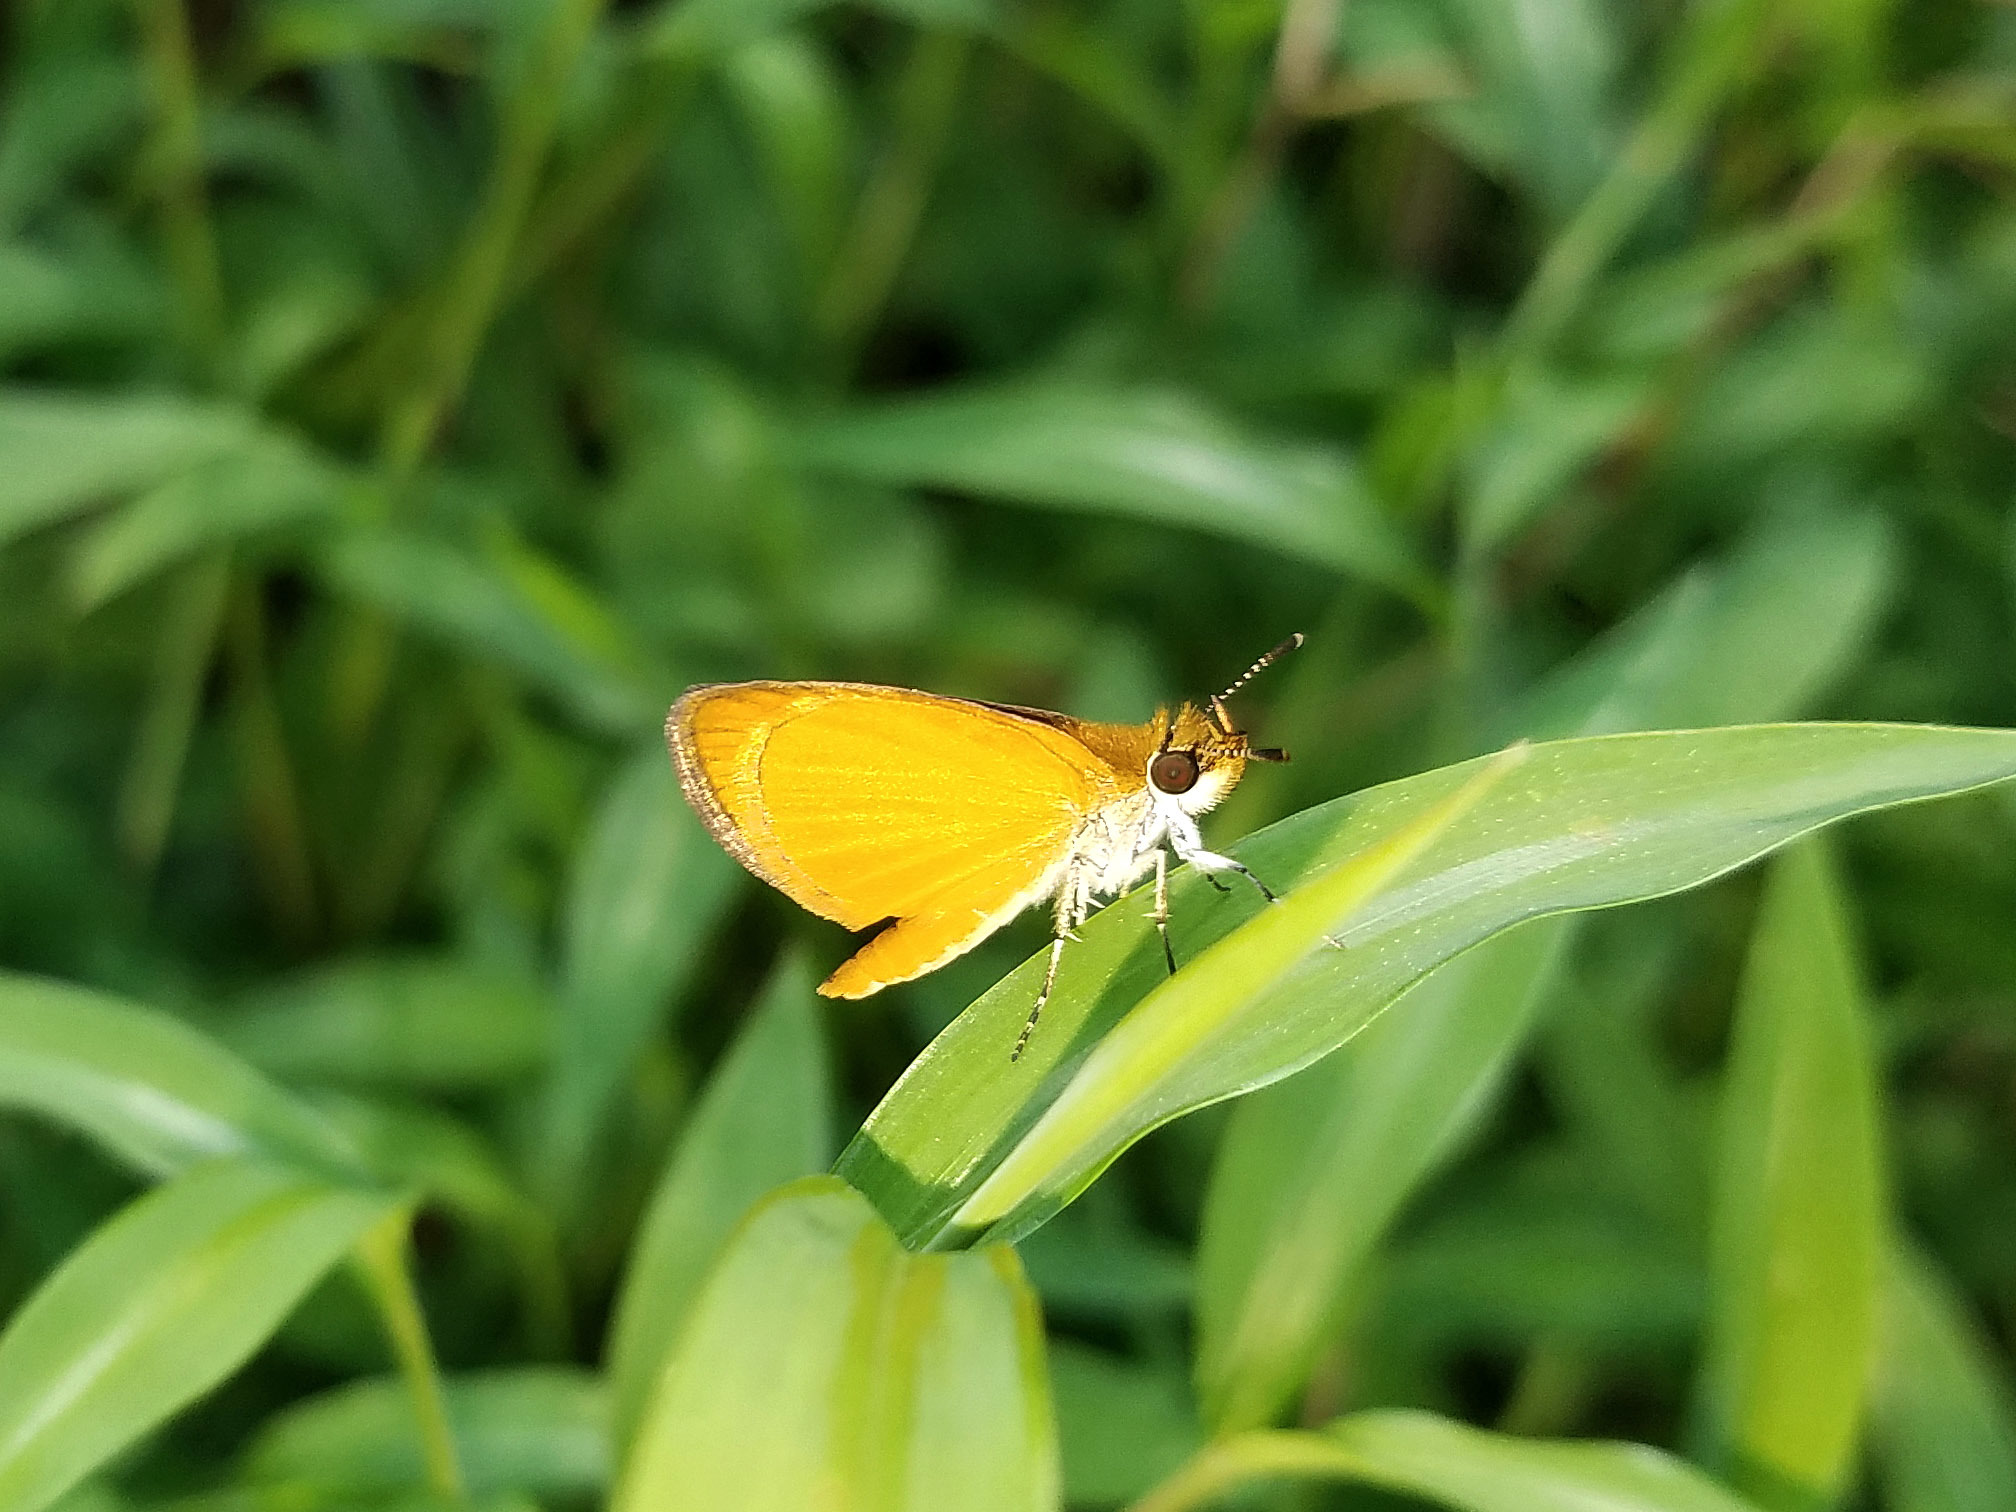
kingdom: Animalia
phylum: Arthropoda
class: Insecta
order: Lepidoptera
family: Hesperiidae
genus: Ancyloxypha
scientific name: Ancyloxypha numitor
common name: Least skipper
